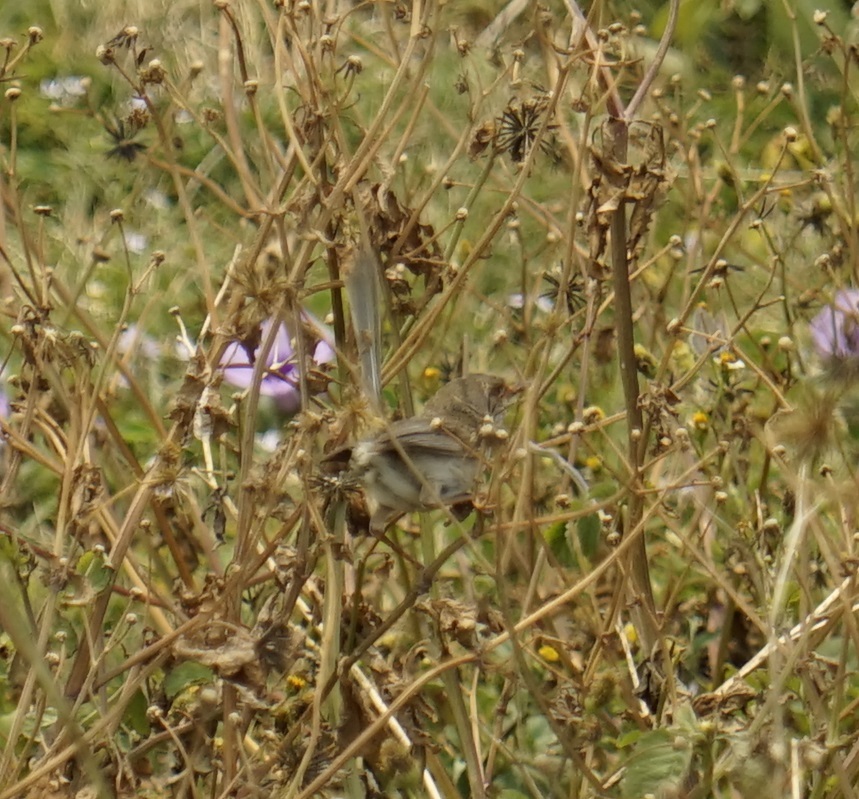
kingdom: Animalia
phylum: Chordata
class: Aves
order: Passeriformes
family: Maluridae
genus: Malurus
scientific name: Malurus cyaneus
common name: Superb fairywren
